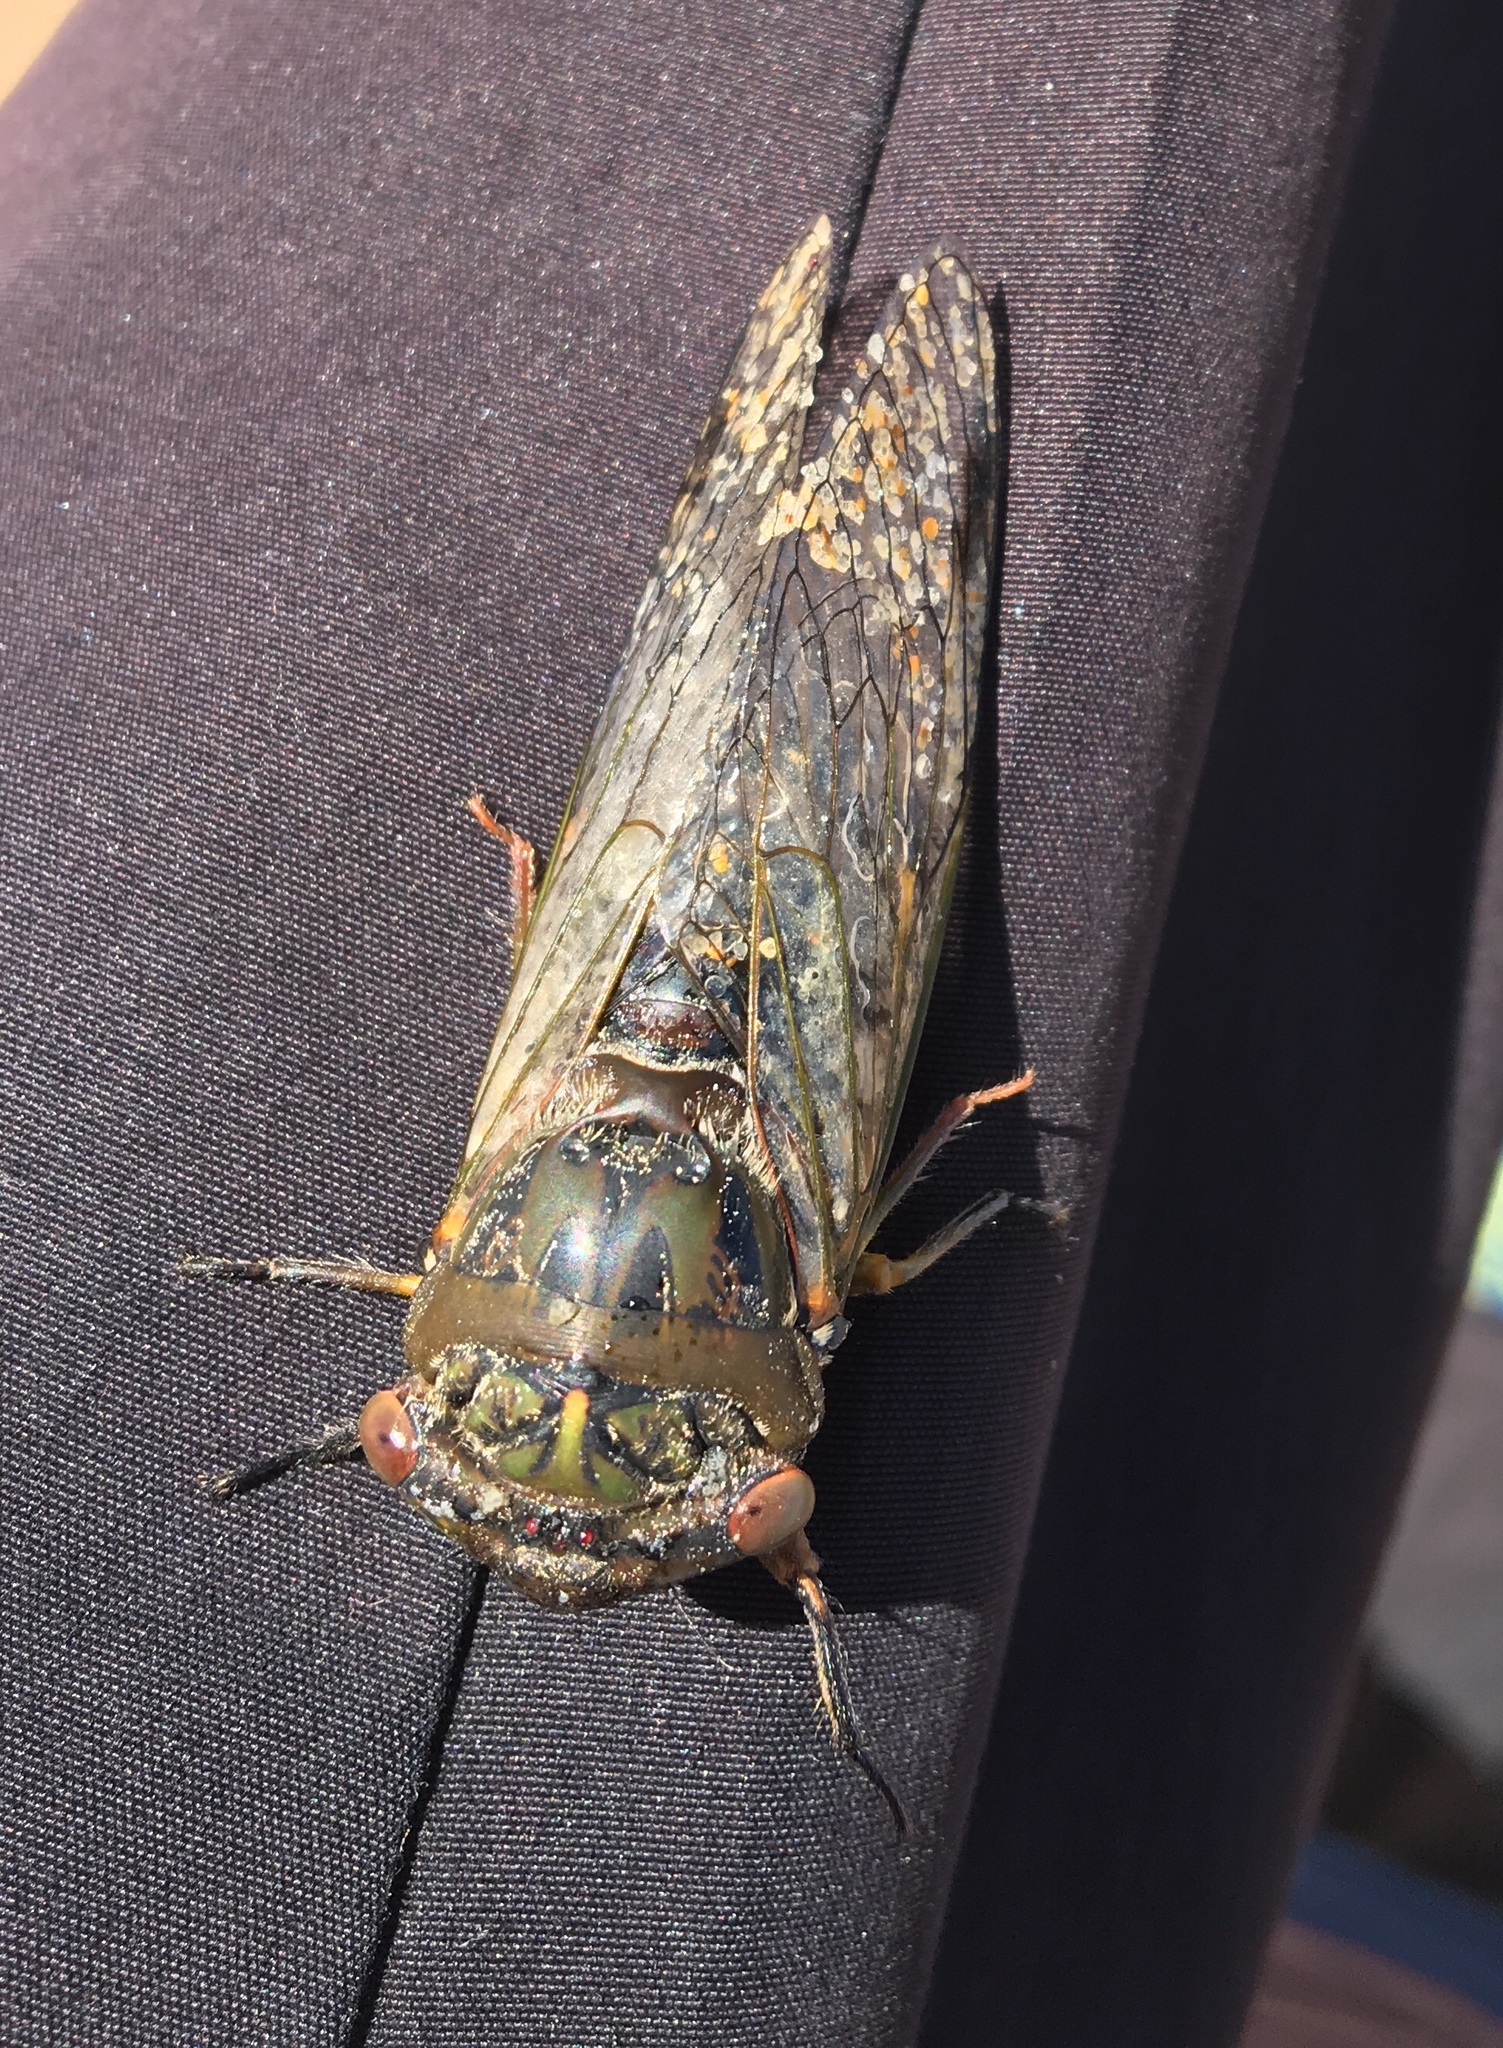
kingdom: Animalia
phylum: Arthropoda
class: Insecta
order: Hemiptera
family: Cicadidae
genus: Psaltoda
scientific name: Psaltoda plaga
